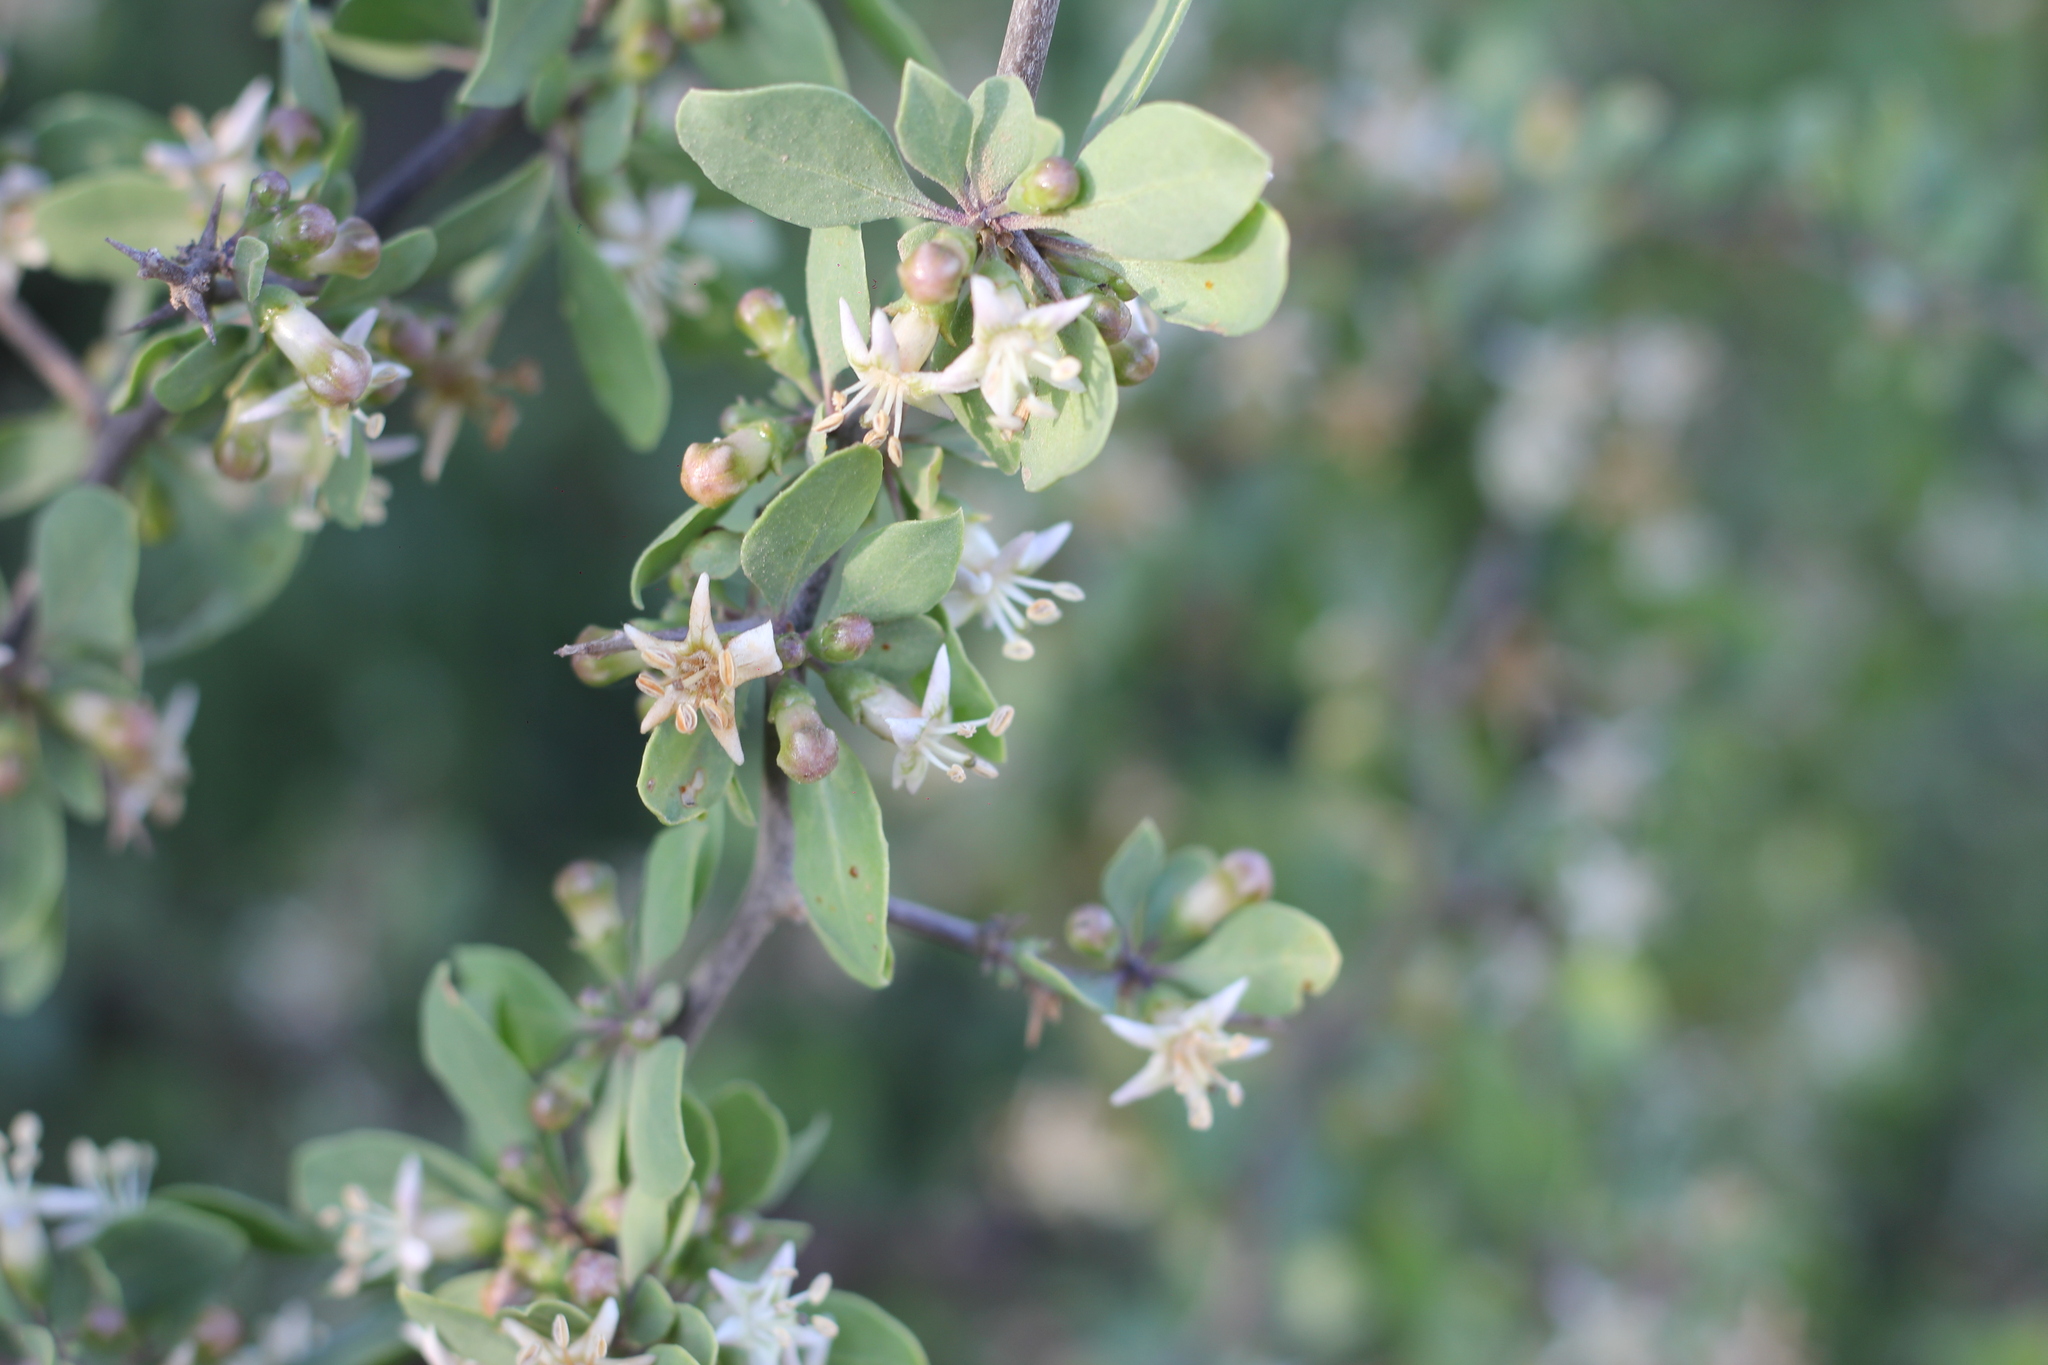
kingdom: Plantae
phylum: Tracheophyta
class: Magnoliopsida
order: Solanales
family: Solanaceae
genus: Lycium
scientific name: Lycium boerhaaviifolium
